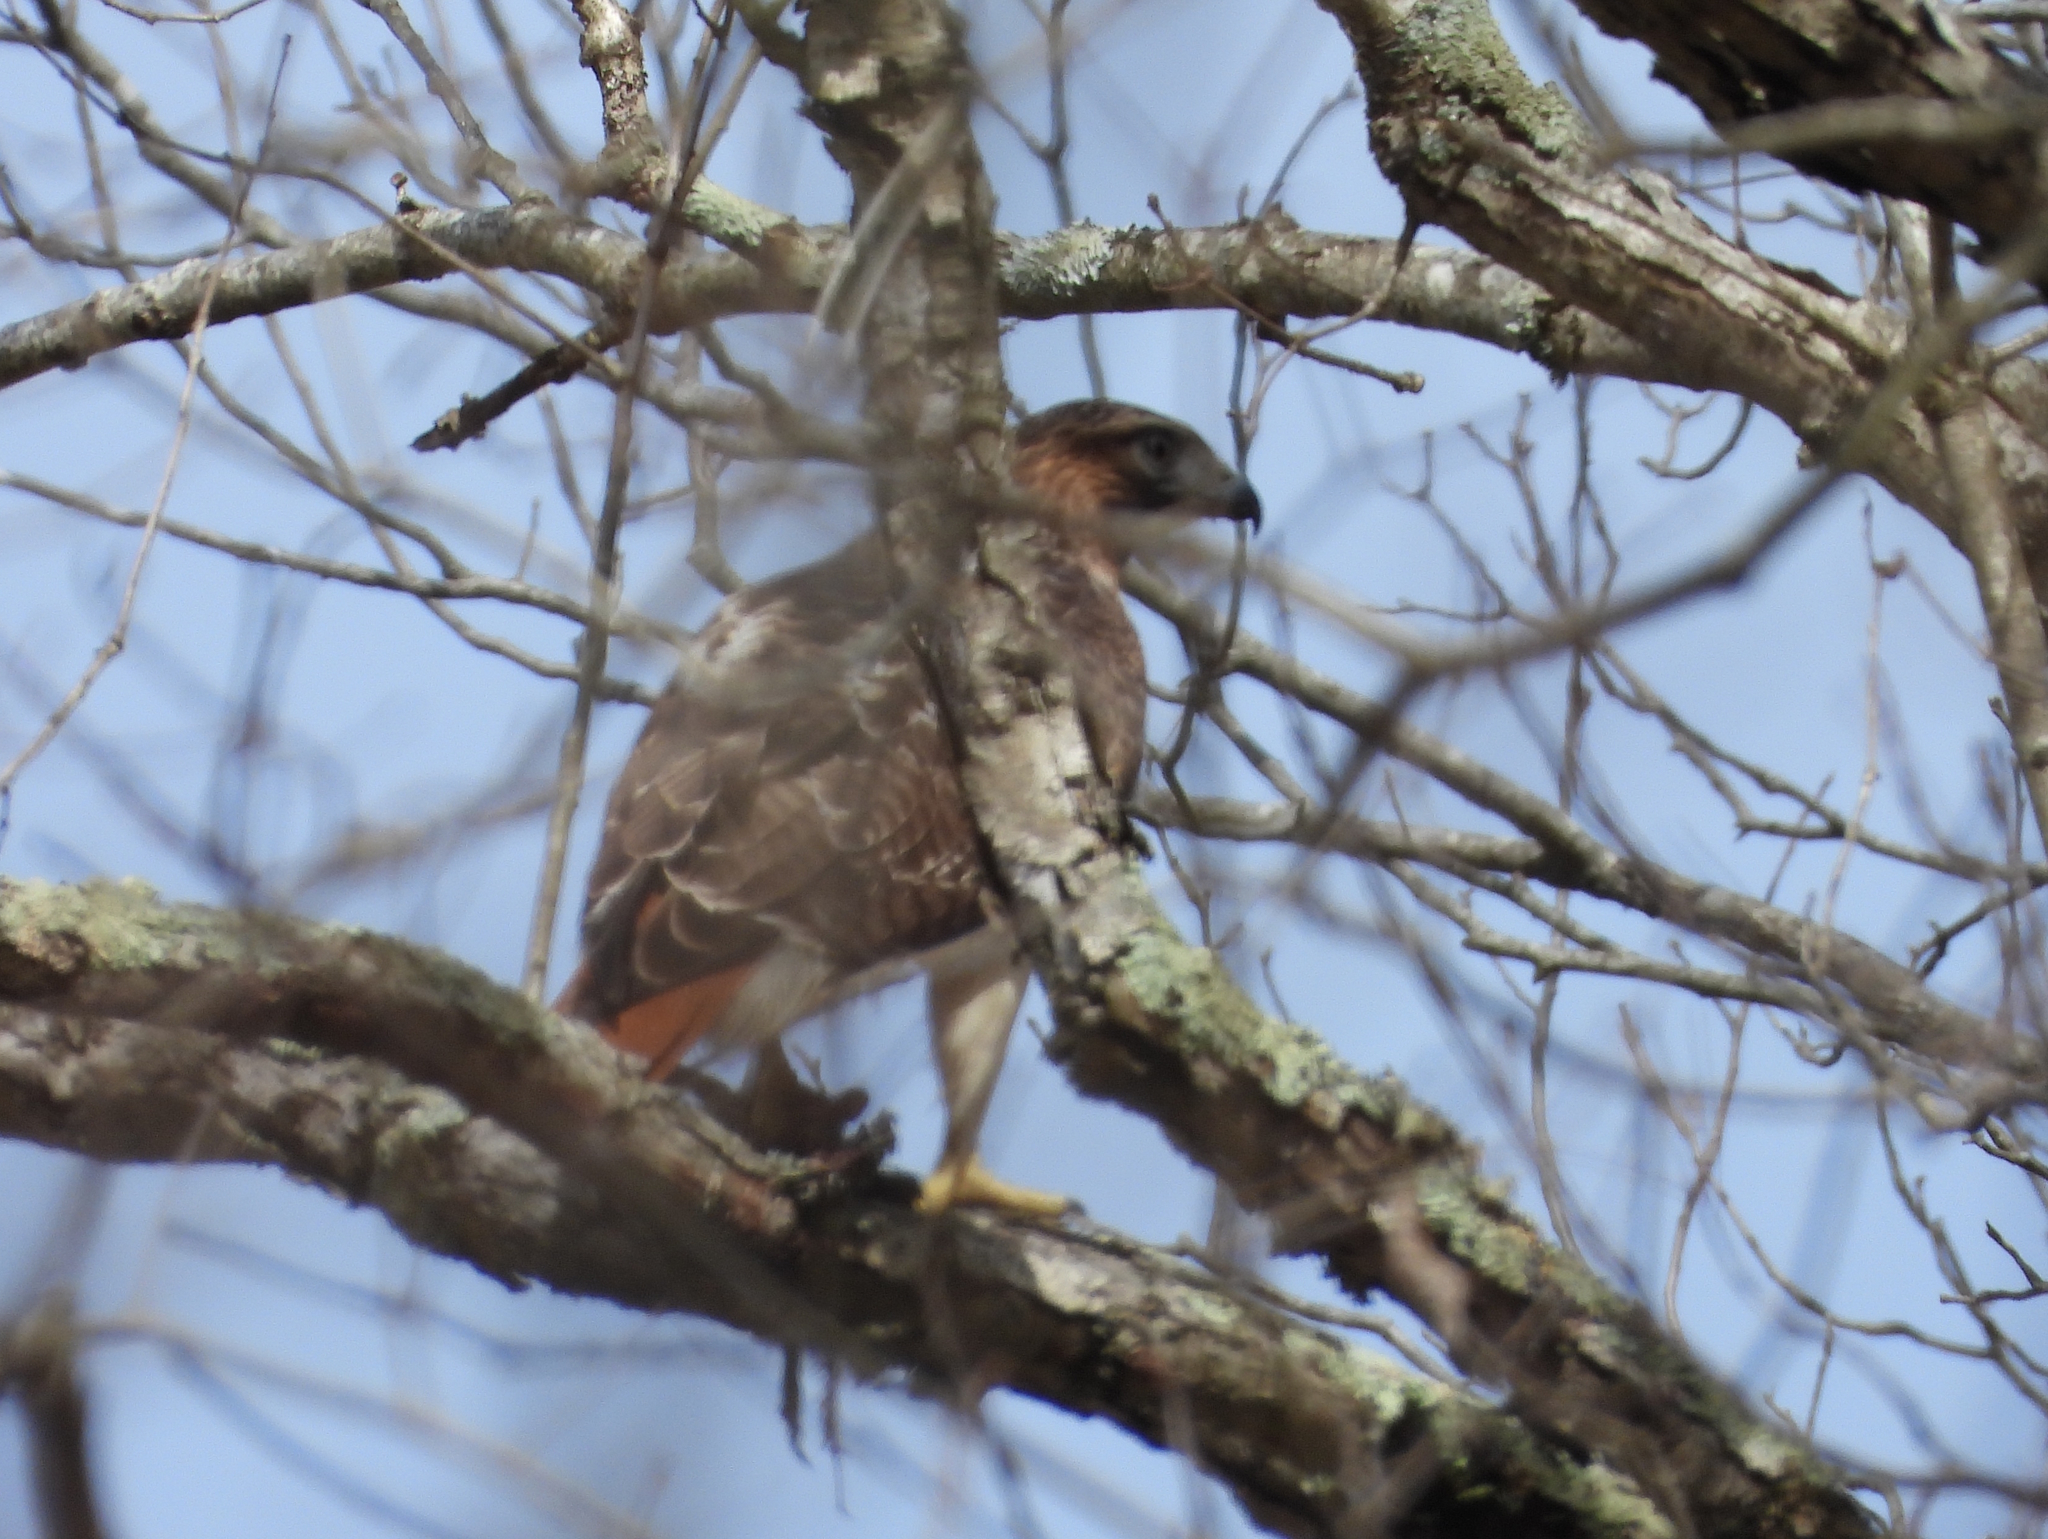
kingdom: Animalia
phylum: Chordata
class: Aves
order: Accipitriformes
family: Accipitridae
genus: Buteo
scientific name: Buteo jamaicensis
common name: Red-tailed hawk
